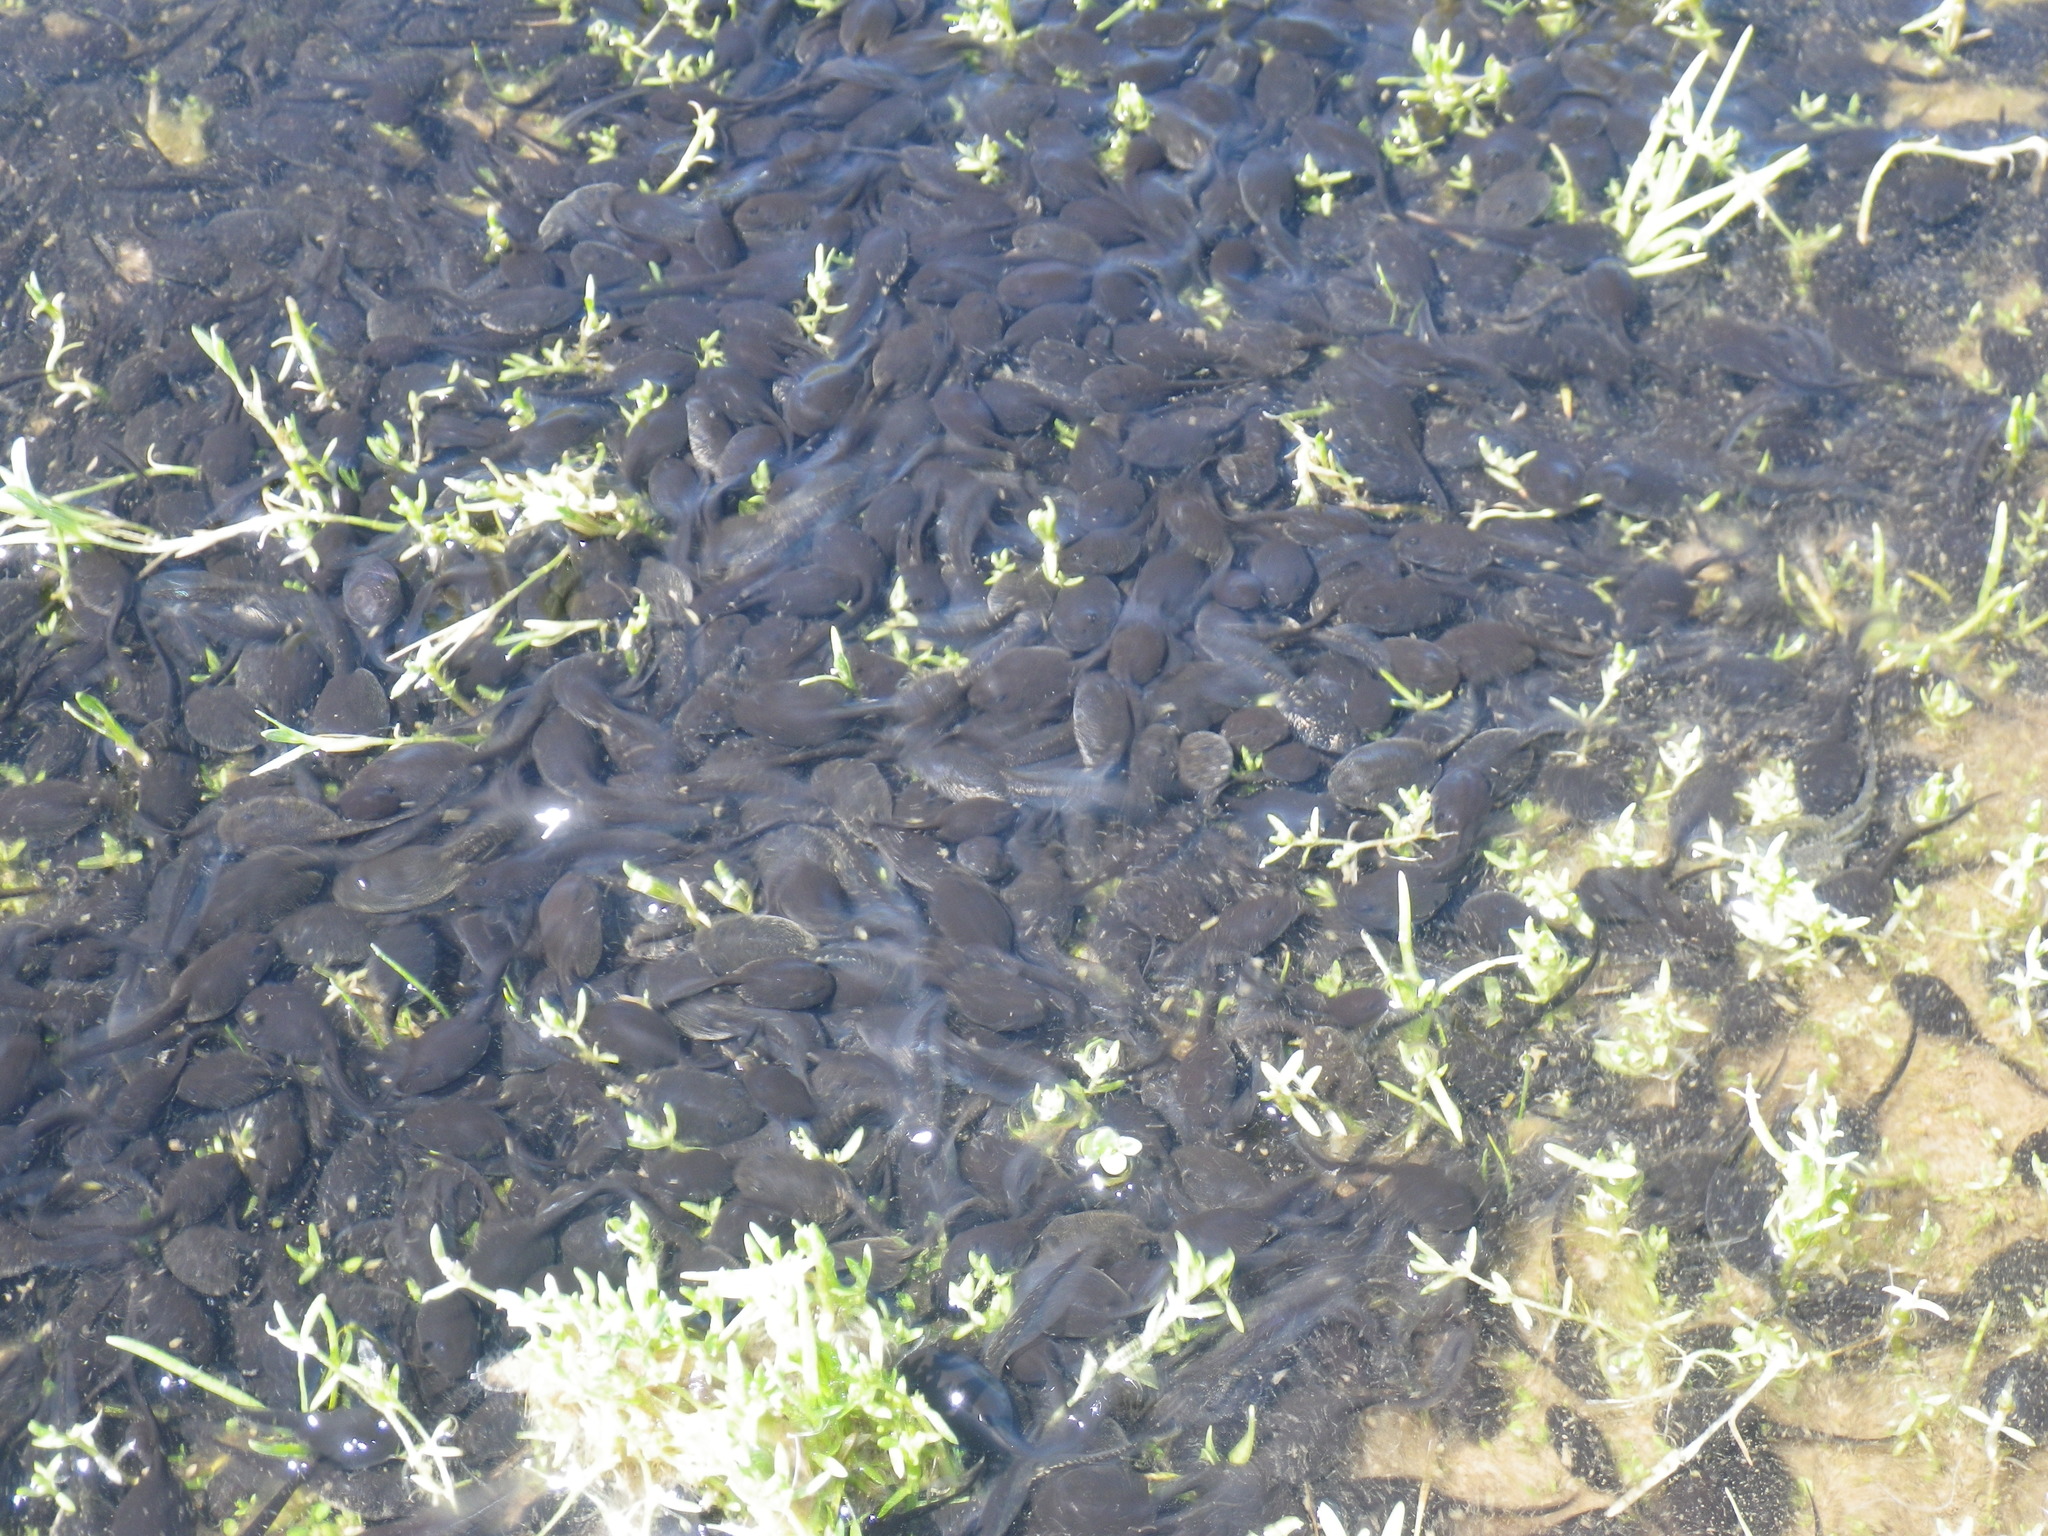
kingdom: Animalia
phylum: Chordata
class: Amphibia
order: Anura
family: Bufonidae
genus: Anaxyrus
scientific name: Anaxyrus boreas
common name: Western toad
